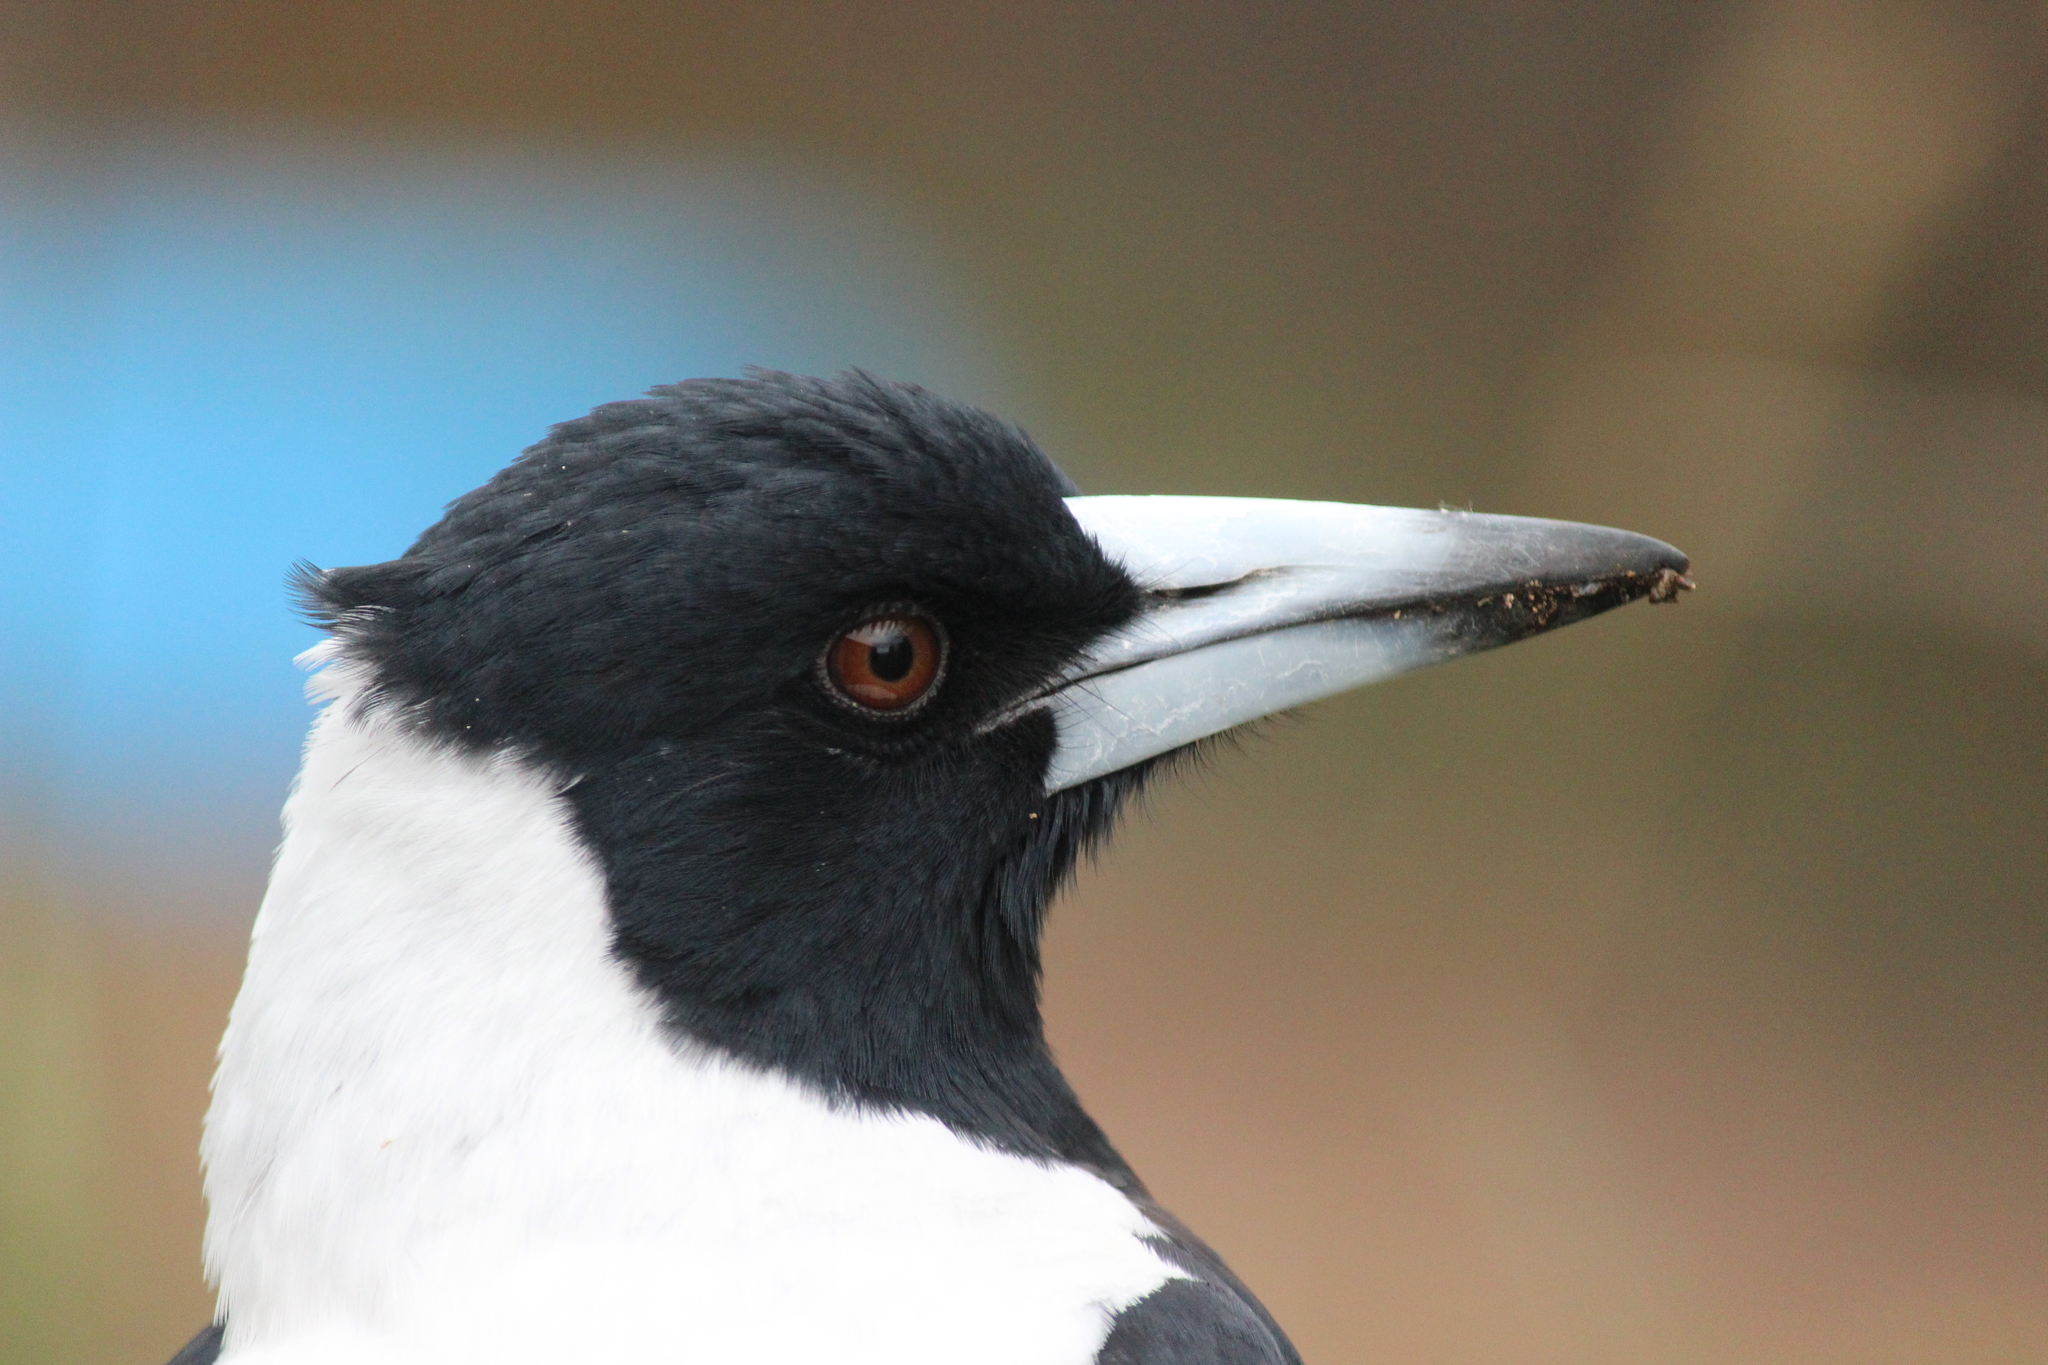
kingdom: Animalia
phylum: Chordata
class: Aves
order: Passeriformes
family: Cracticidae
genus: Gymnorhina
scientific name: Gymnorhina tibicen
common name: Australian magpie
